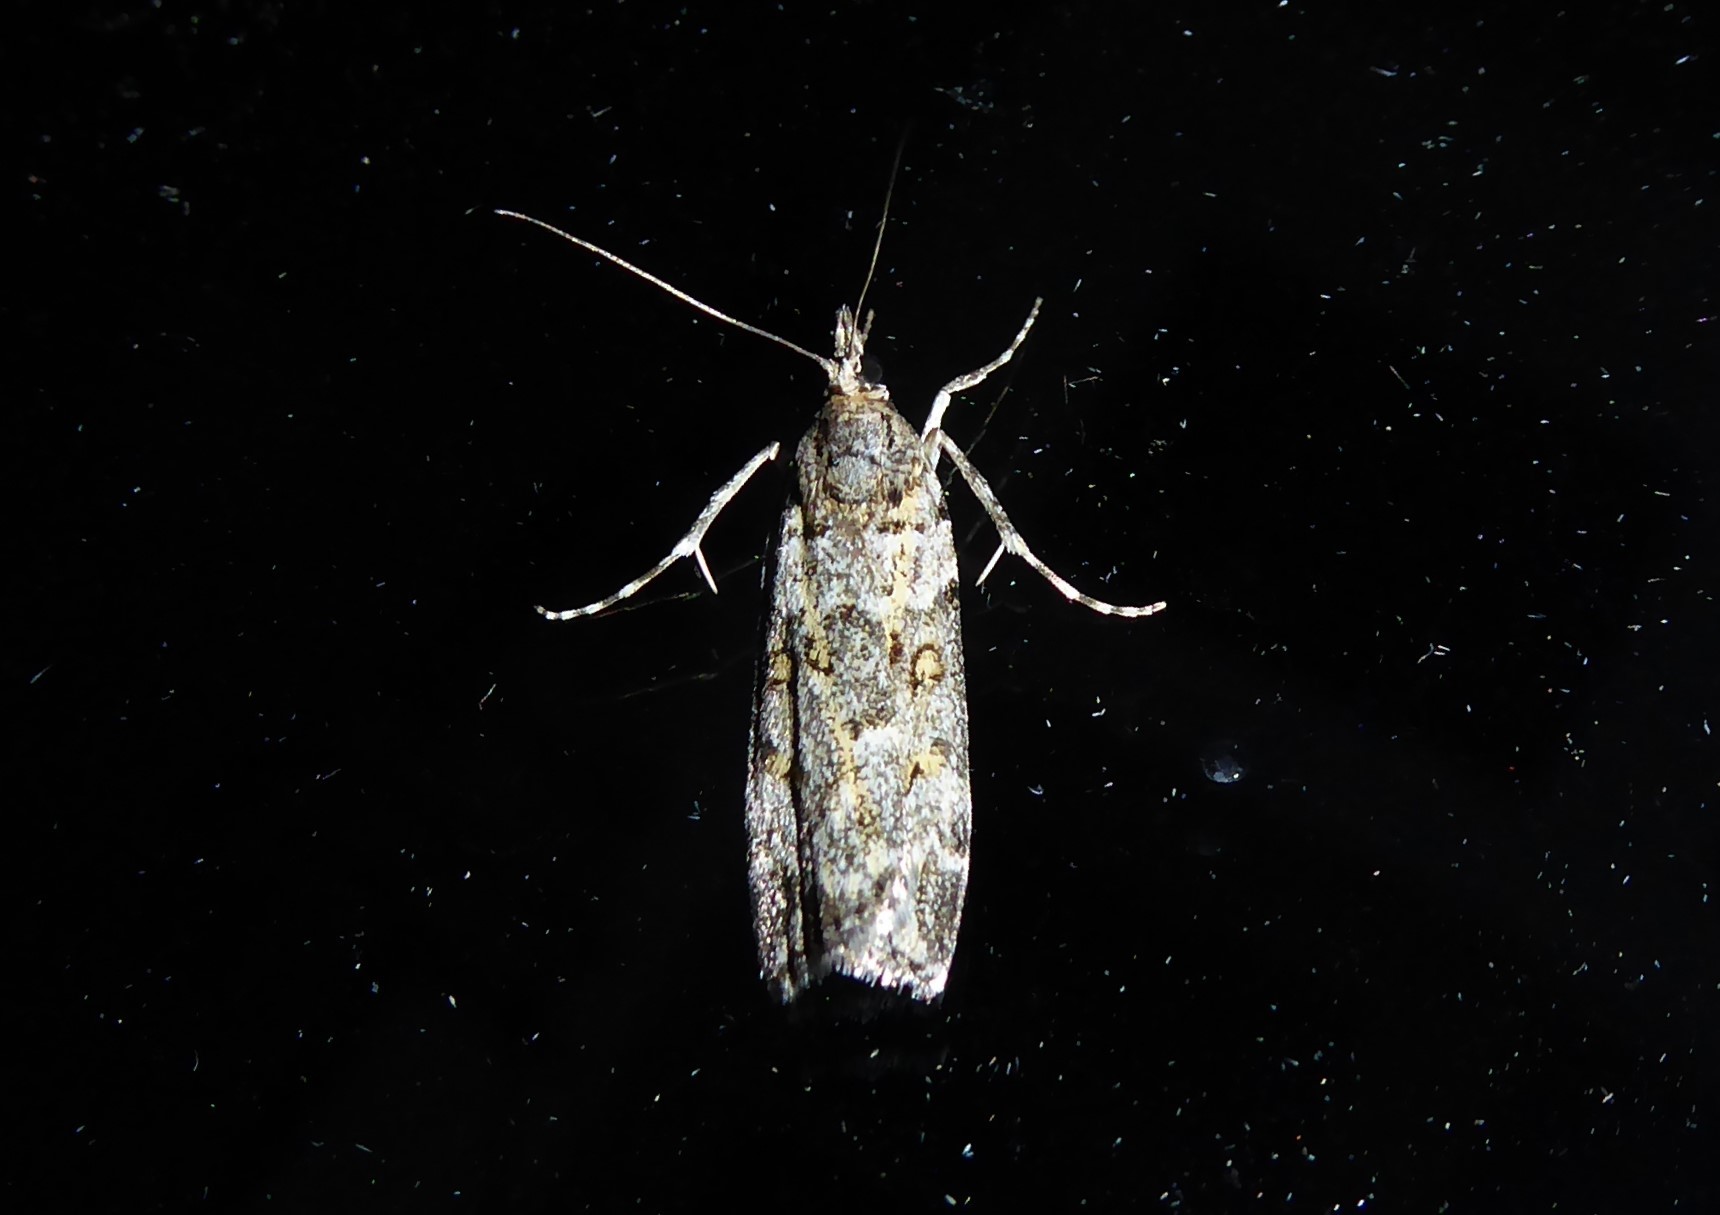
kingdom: Animalia
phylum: Arthropoda
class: Insecta
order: Lepidoptera
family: Crambidae
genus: Eudonia
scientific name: Eudonia diphtheralis
